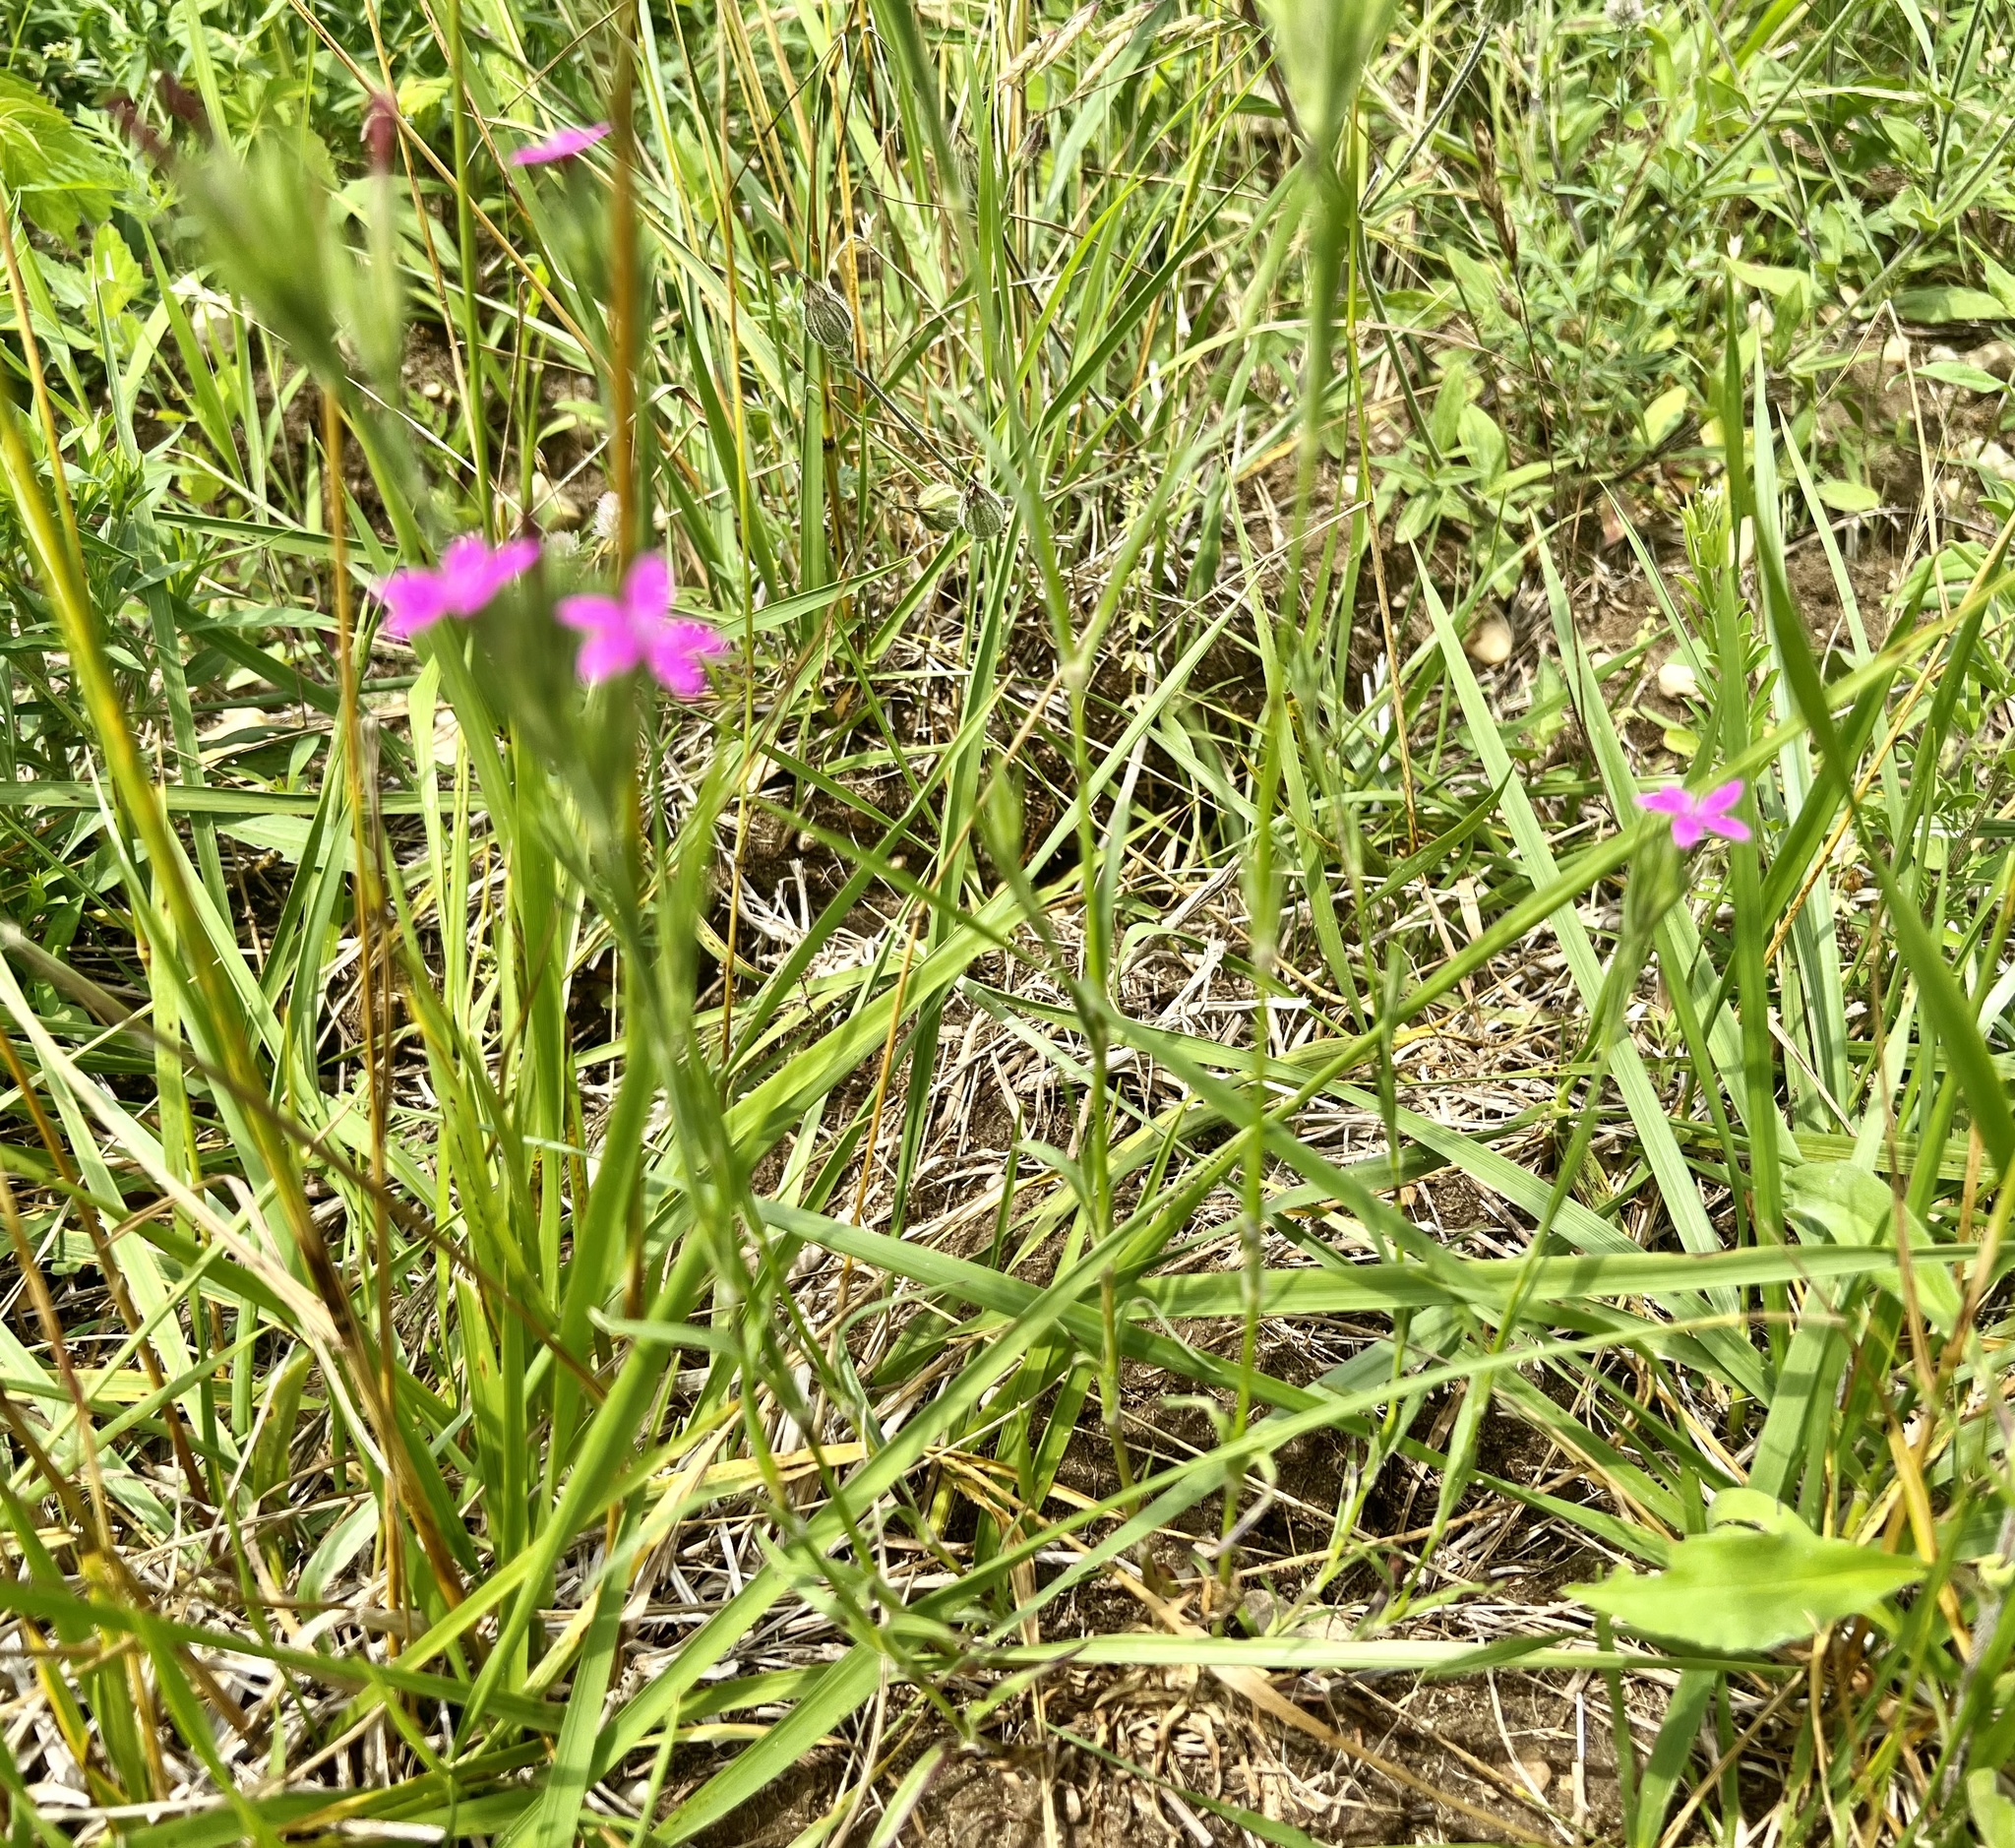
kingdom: Plantae
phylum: Tracheophyta
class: Magnoliopsida
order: Caryophyllales
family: Caryophyllaceae
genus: Dianthus
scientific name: Dianthus armeria
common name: Deptford pink
